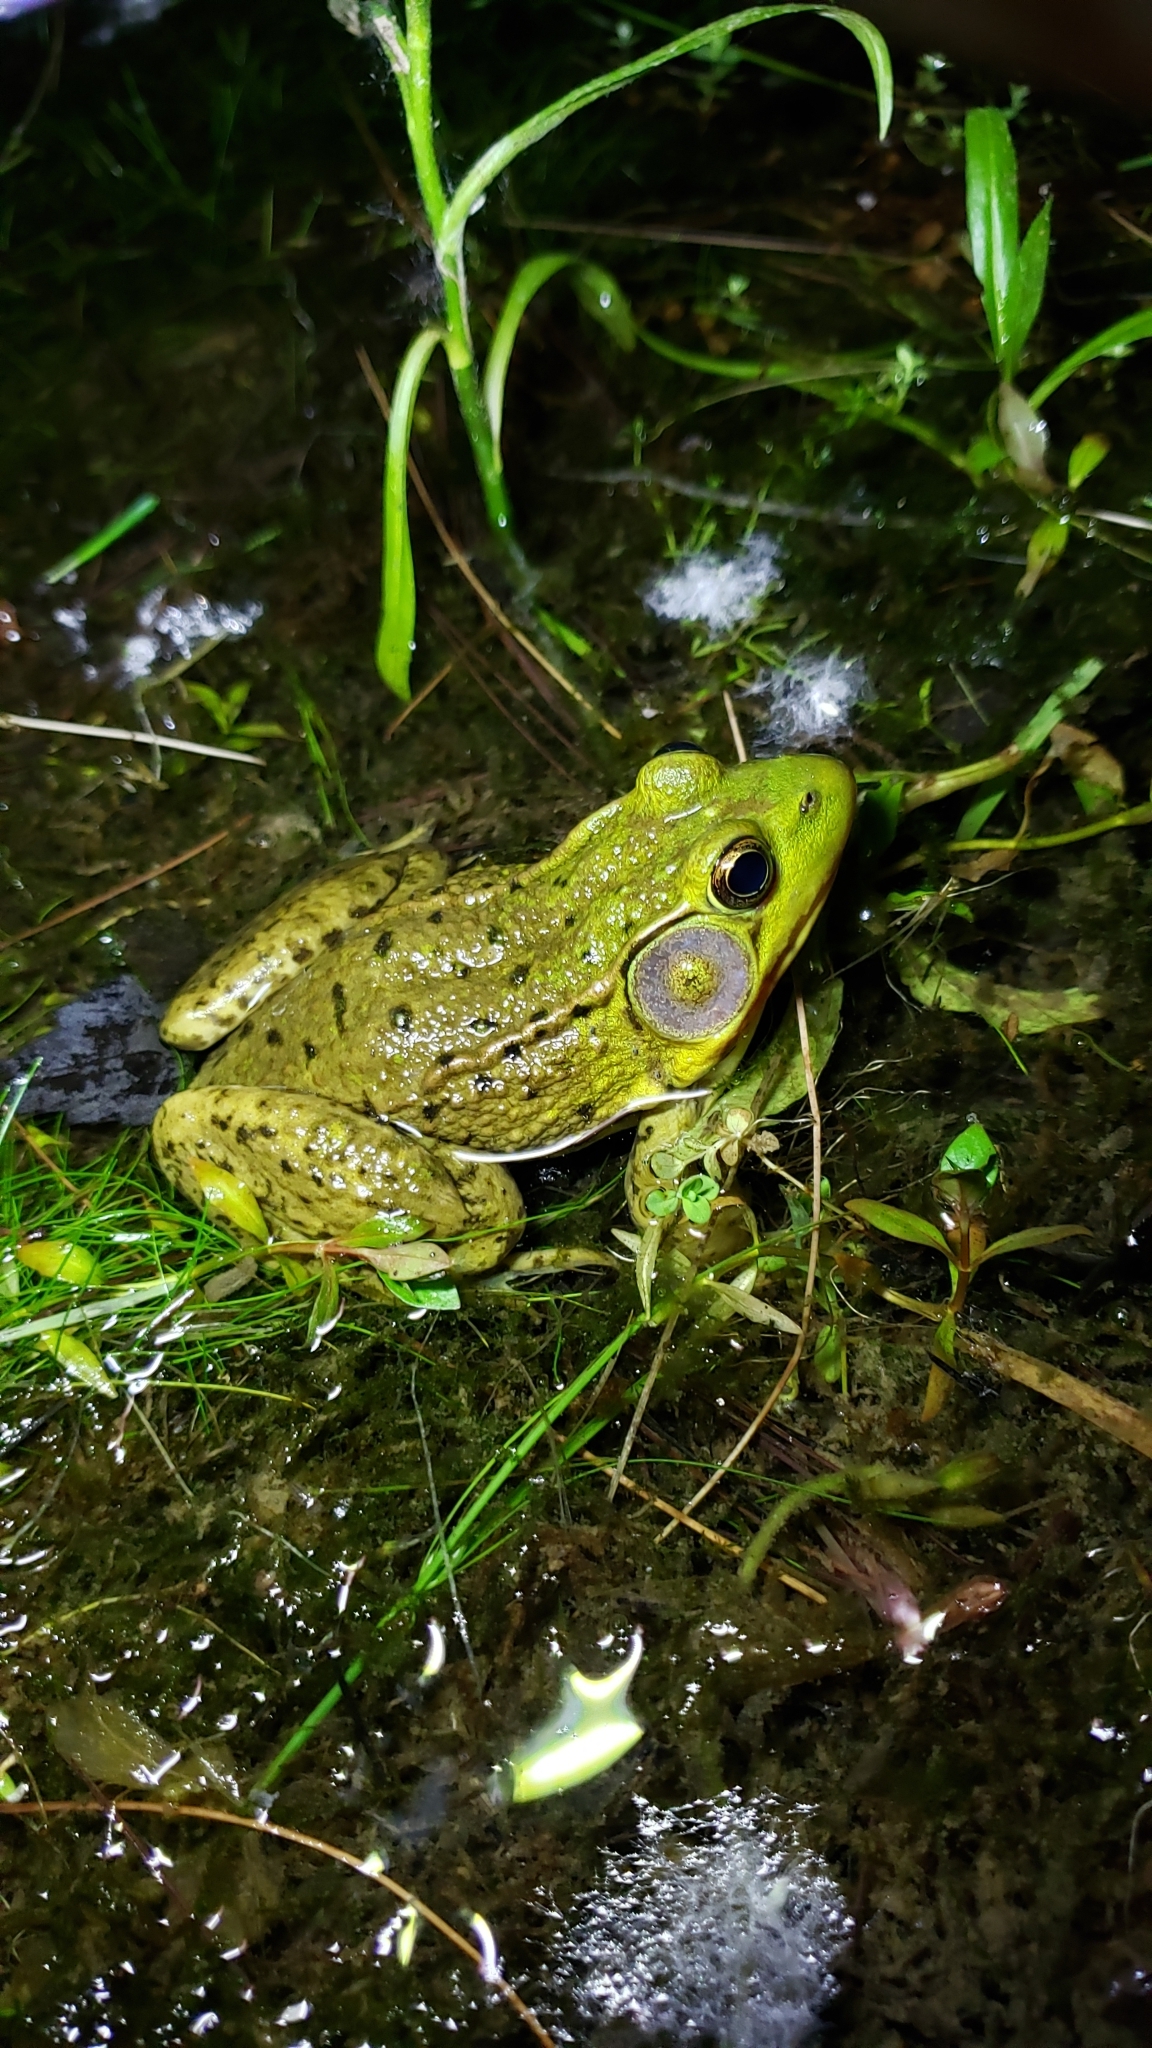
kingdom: Animalia
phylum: Chordata
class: Amphibia
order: Anura
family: Ranidae
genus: Lithobates
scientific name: Lithobates clamitans
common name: Green frog
